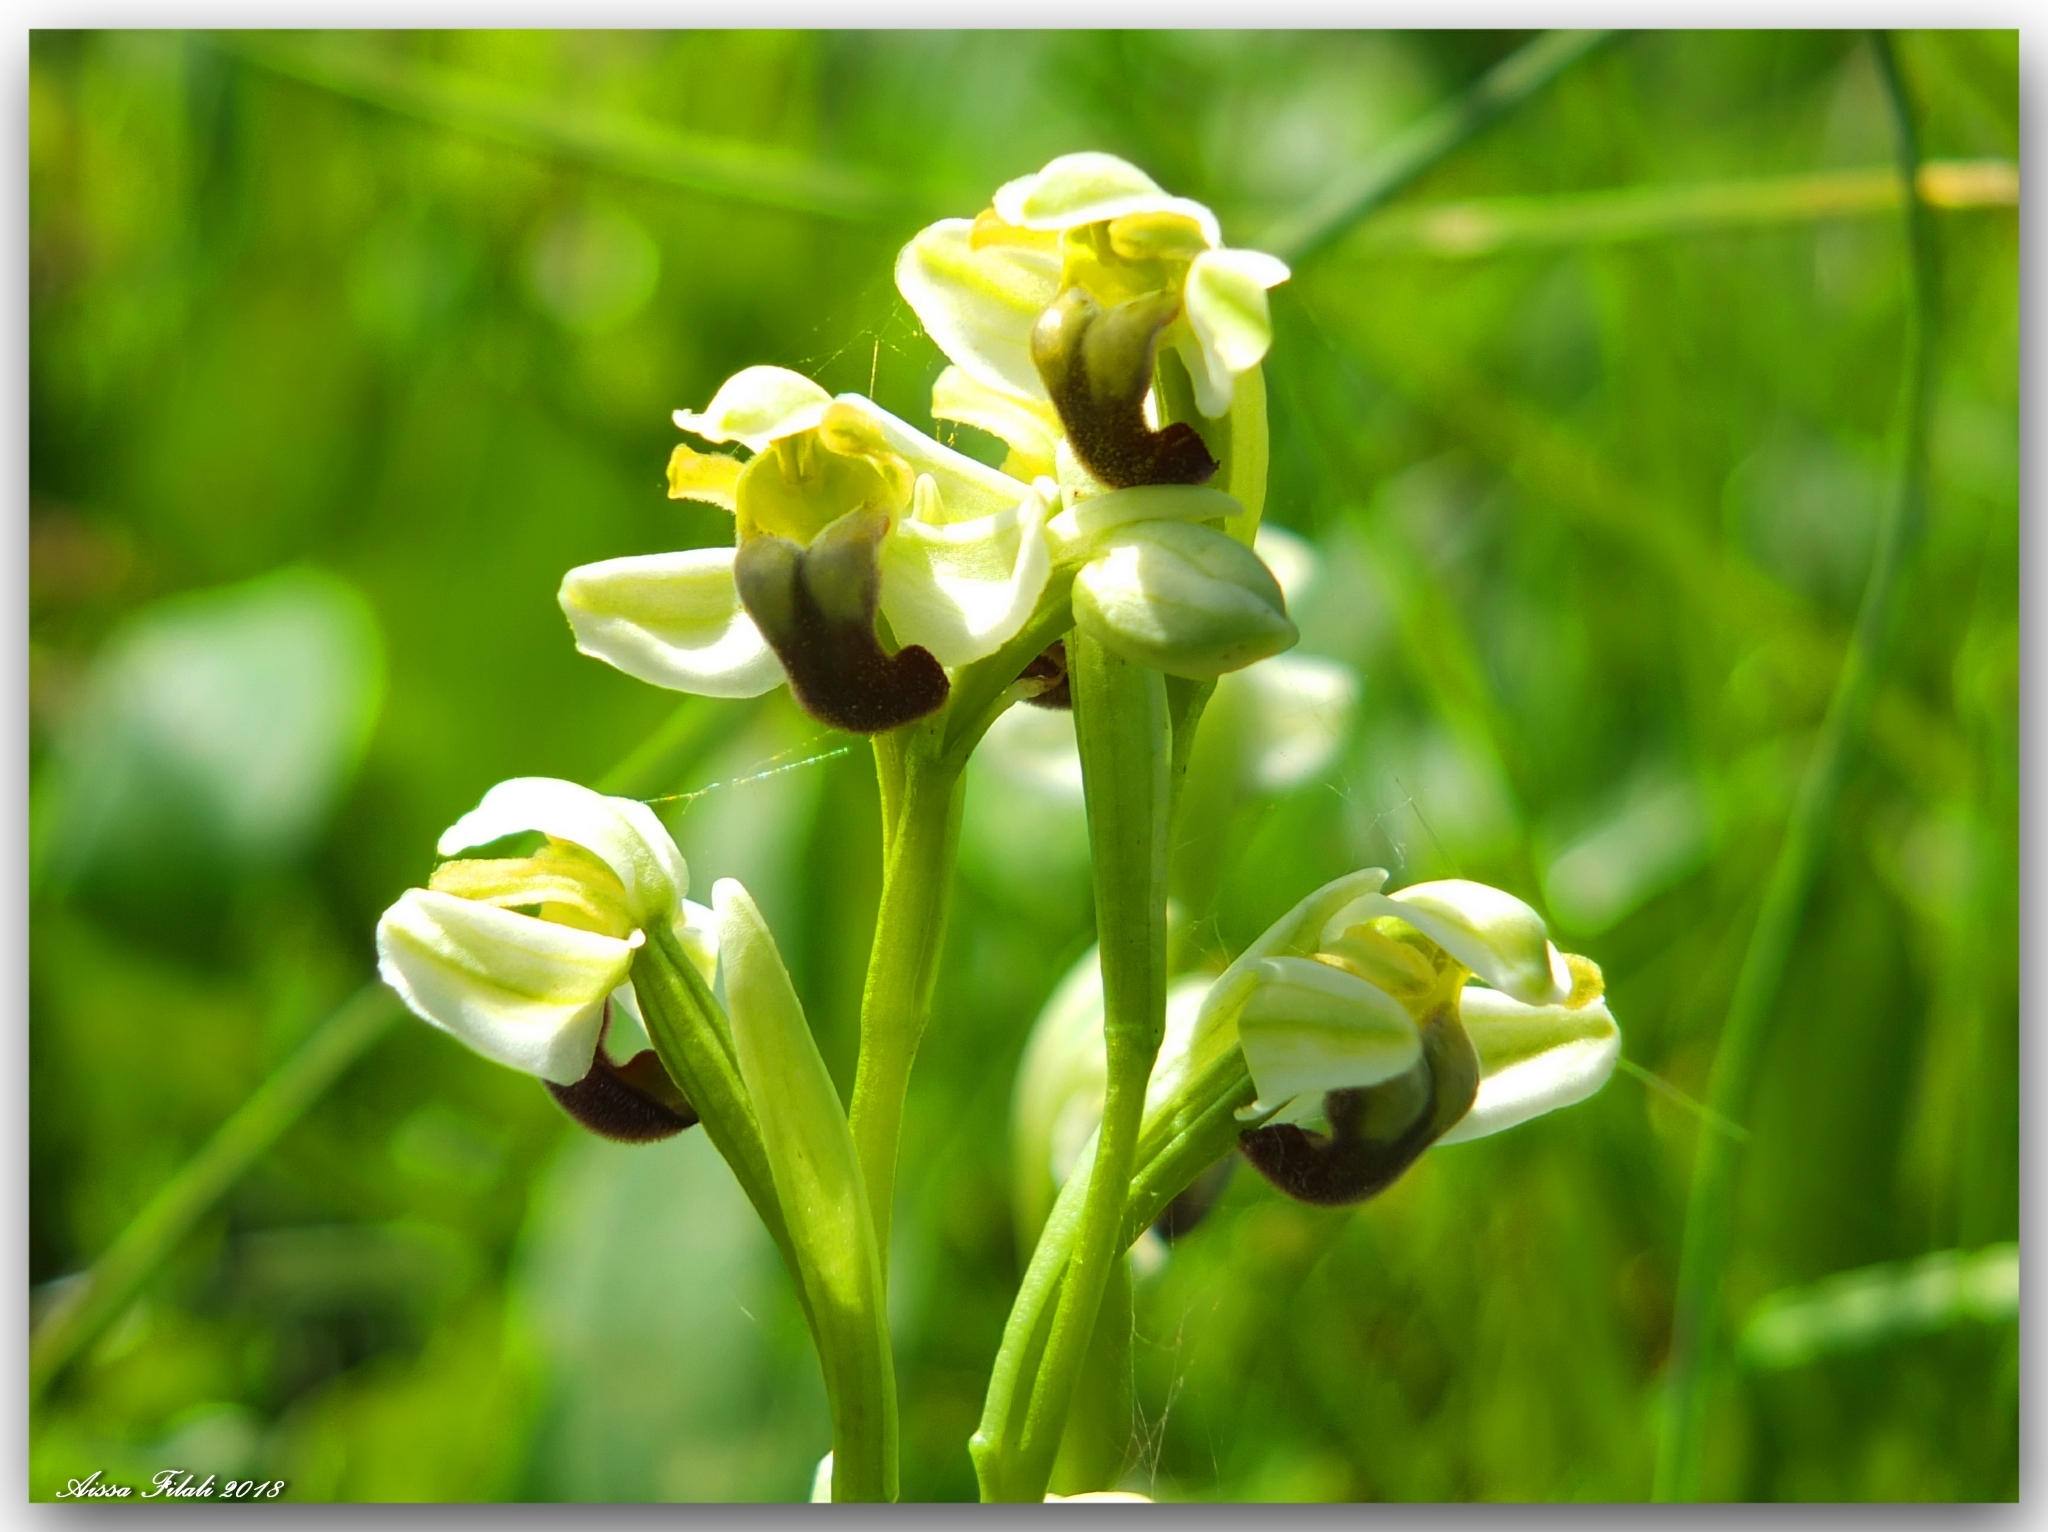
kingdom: Plantae
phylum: Tracheophyta
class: Liliopsida
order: Asparagales
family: Orchidaceae
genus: Ophrys
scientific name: Ophrys fusca
